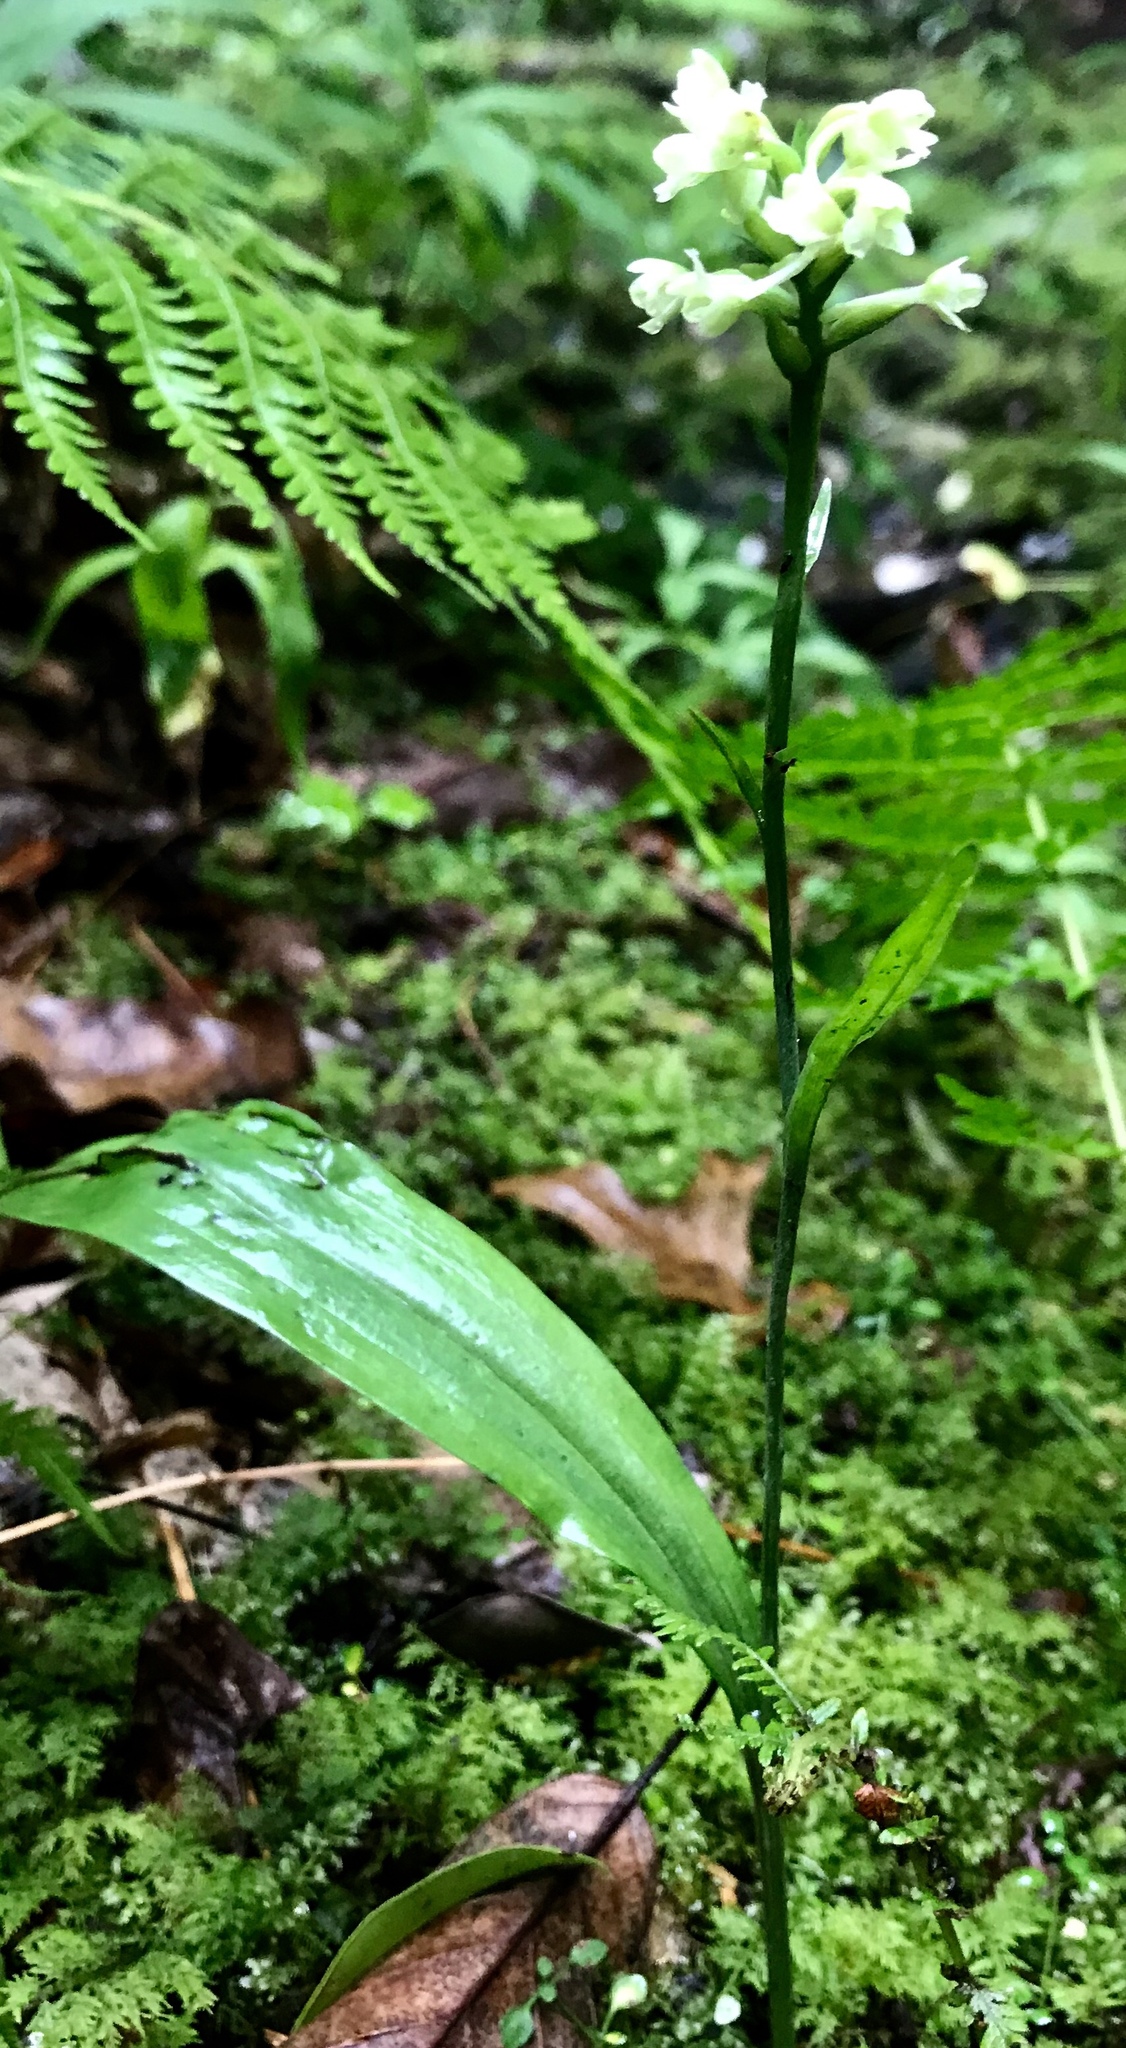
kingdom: Plantae
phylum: Tracheophyta
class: Liliopsida
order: Asparagales
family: Orchidaceae
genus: Platanthera
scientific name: Platanthera clavellata
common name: Club-spur orchid
